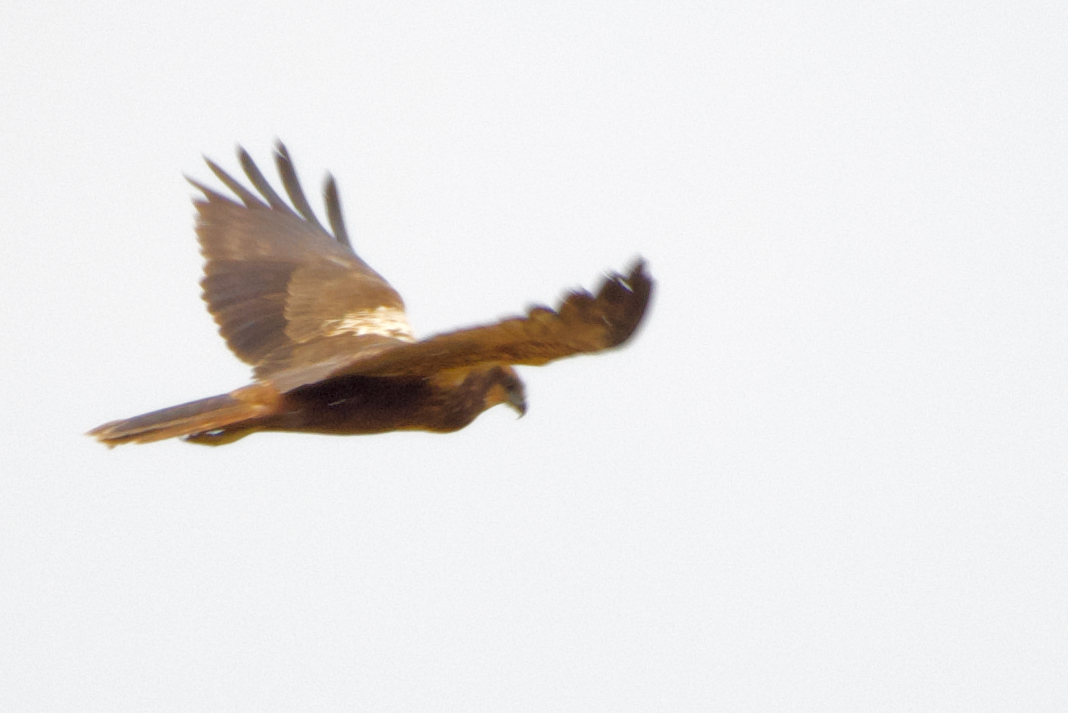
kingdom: Animalia
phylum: Chordata
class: Aves
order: Accipitriformes
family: Accipitridae
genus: Circus
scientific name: Circus aeruginosus
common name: Western marsh harrier
